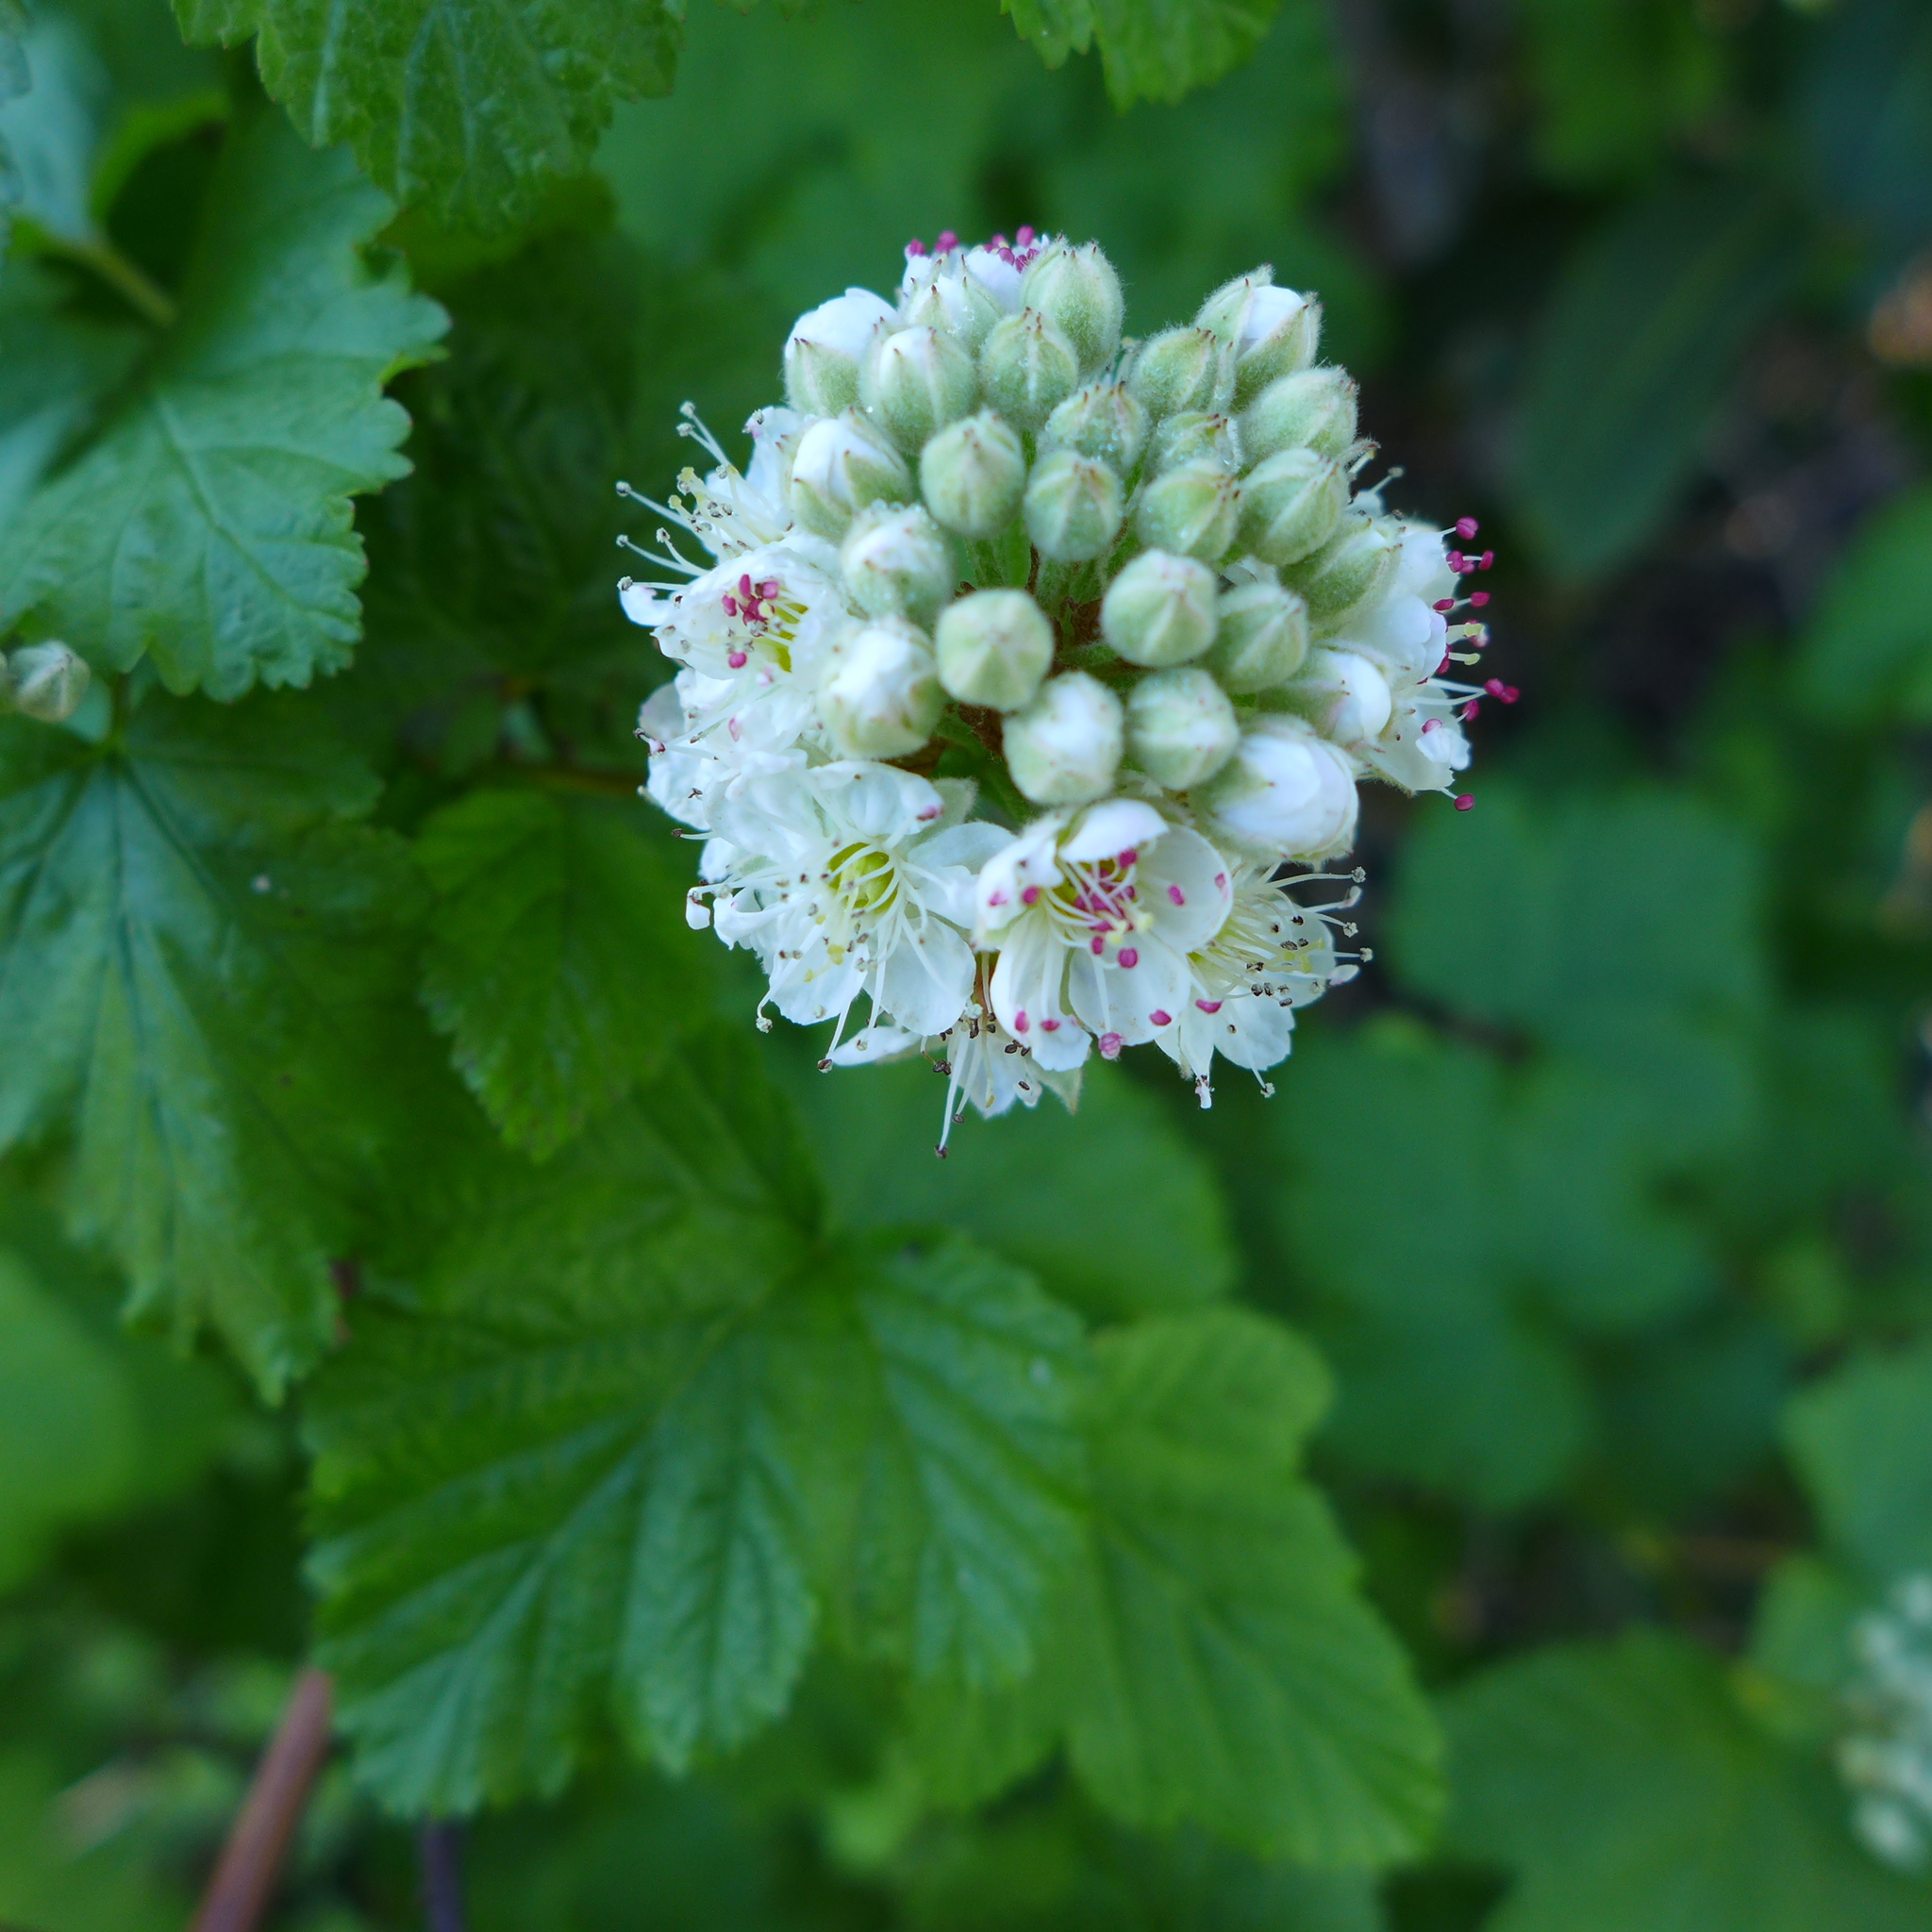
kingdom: Plantae
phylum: Tracheophyta
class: Magnoliopsida
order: Rosales
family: Rosaceae
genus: Physocarpus
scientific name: Physocarpus capitatus
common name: Pacific ninebark
